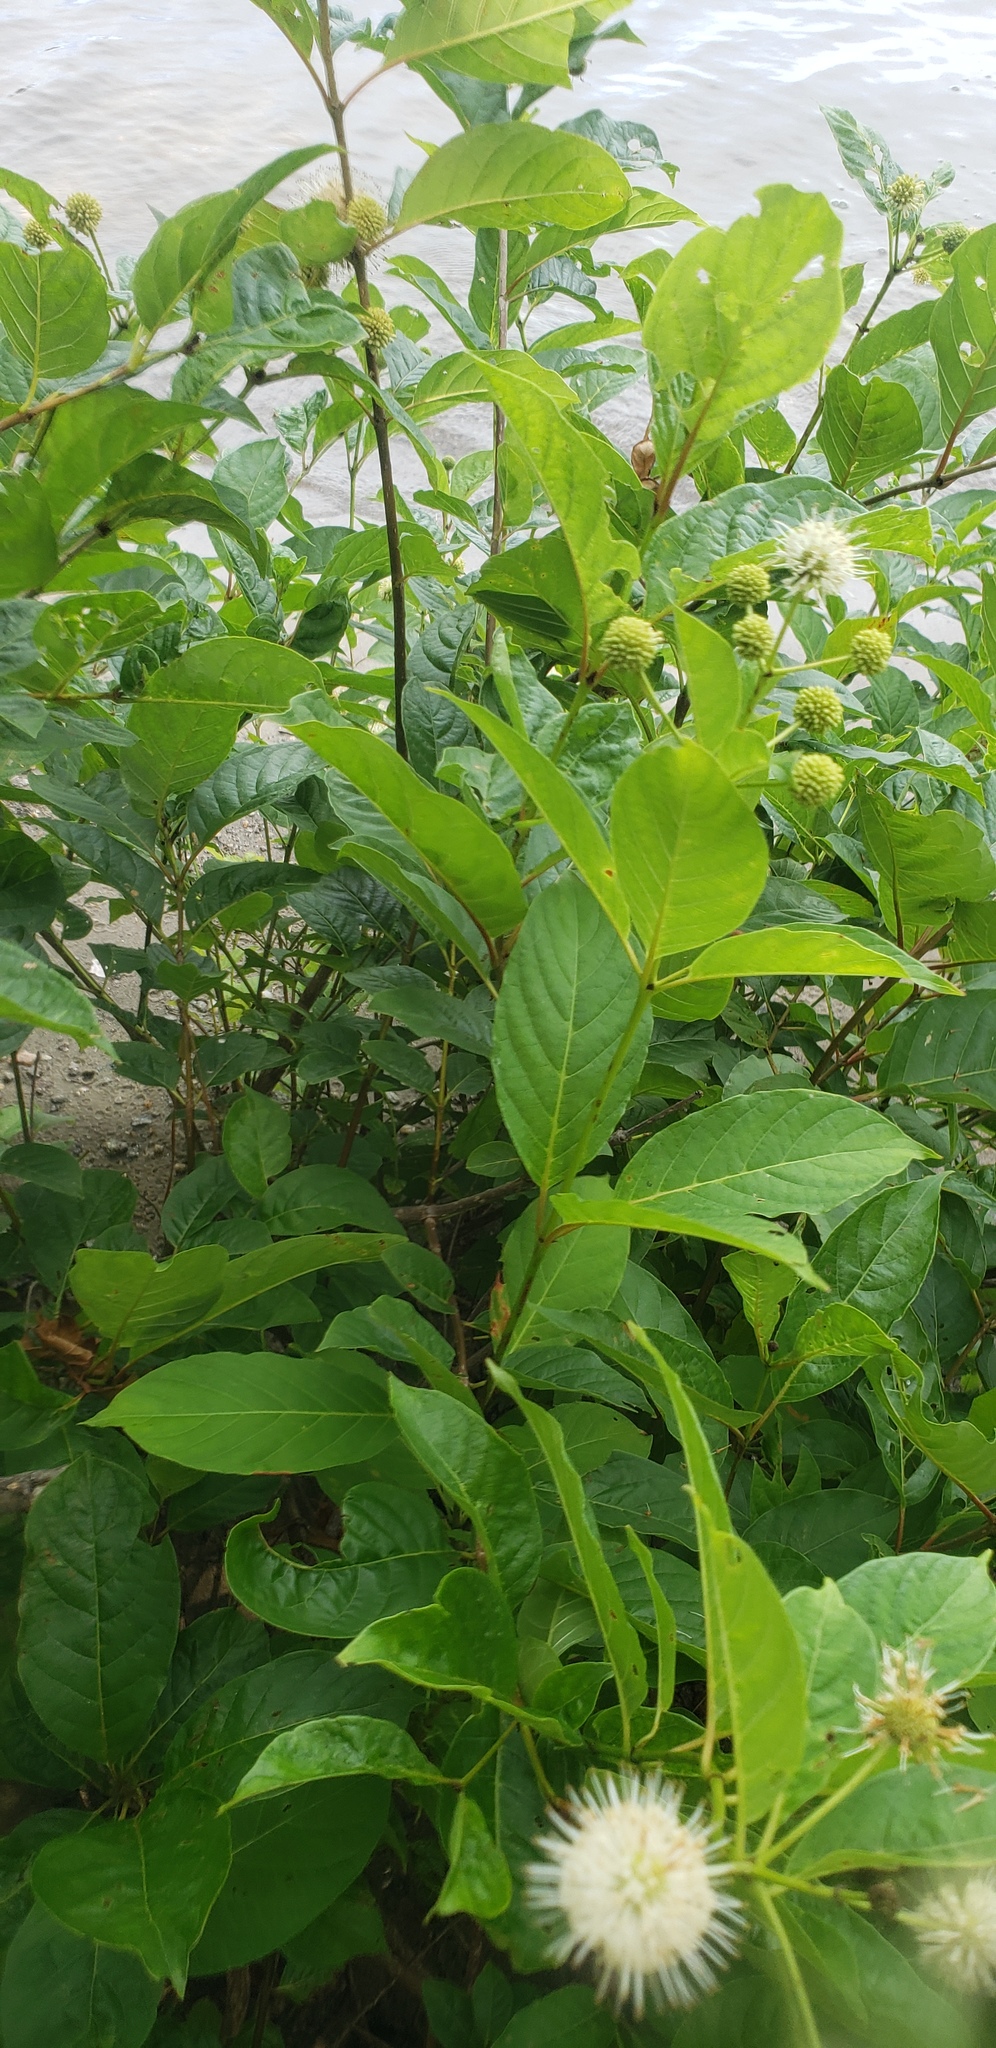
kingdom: Plantae
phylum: Tracheophyta
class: Magnoliopsida
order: Gentianales
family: Rubiaceae
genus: Cephalanthus
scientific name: Cephalanthus occidentalis
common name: Button-willow
